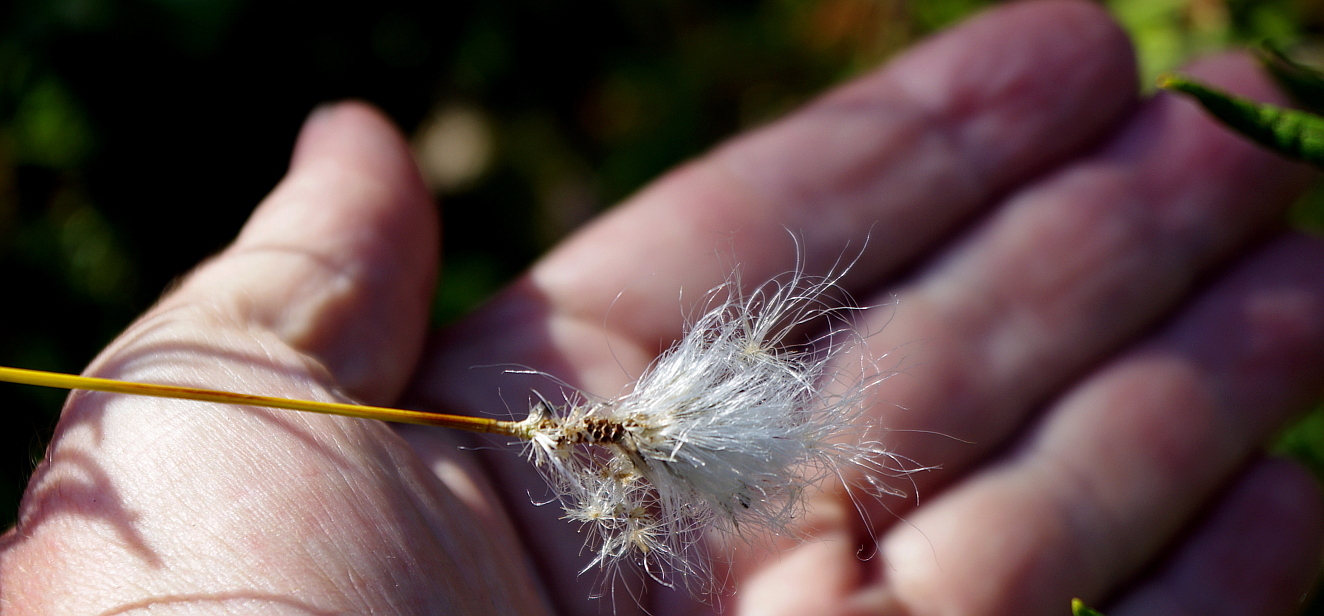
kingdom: Plantae
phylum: Tracheophyta
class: Liliopsida
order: Poales
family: Cyperaceae
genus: Eriophorum
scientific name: Eriophorum vaginatum
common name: Hare's-tail cottongrass
